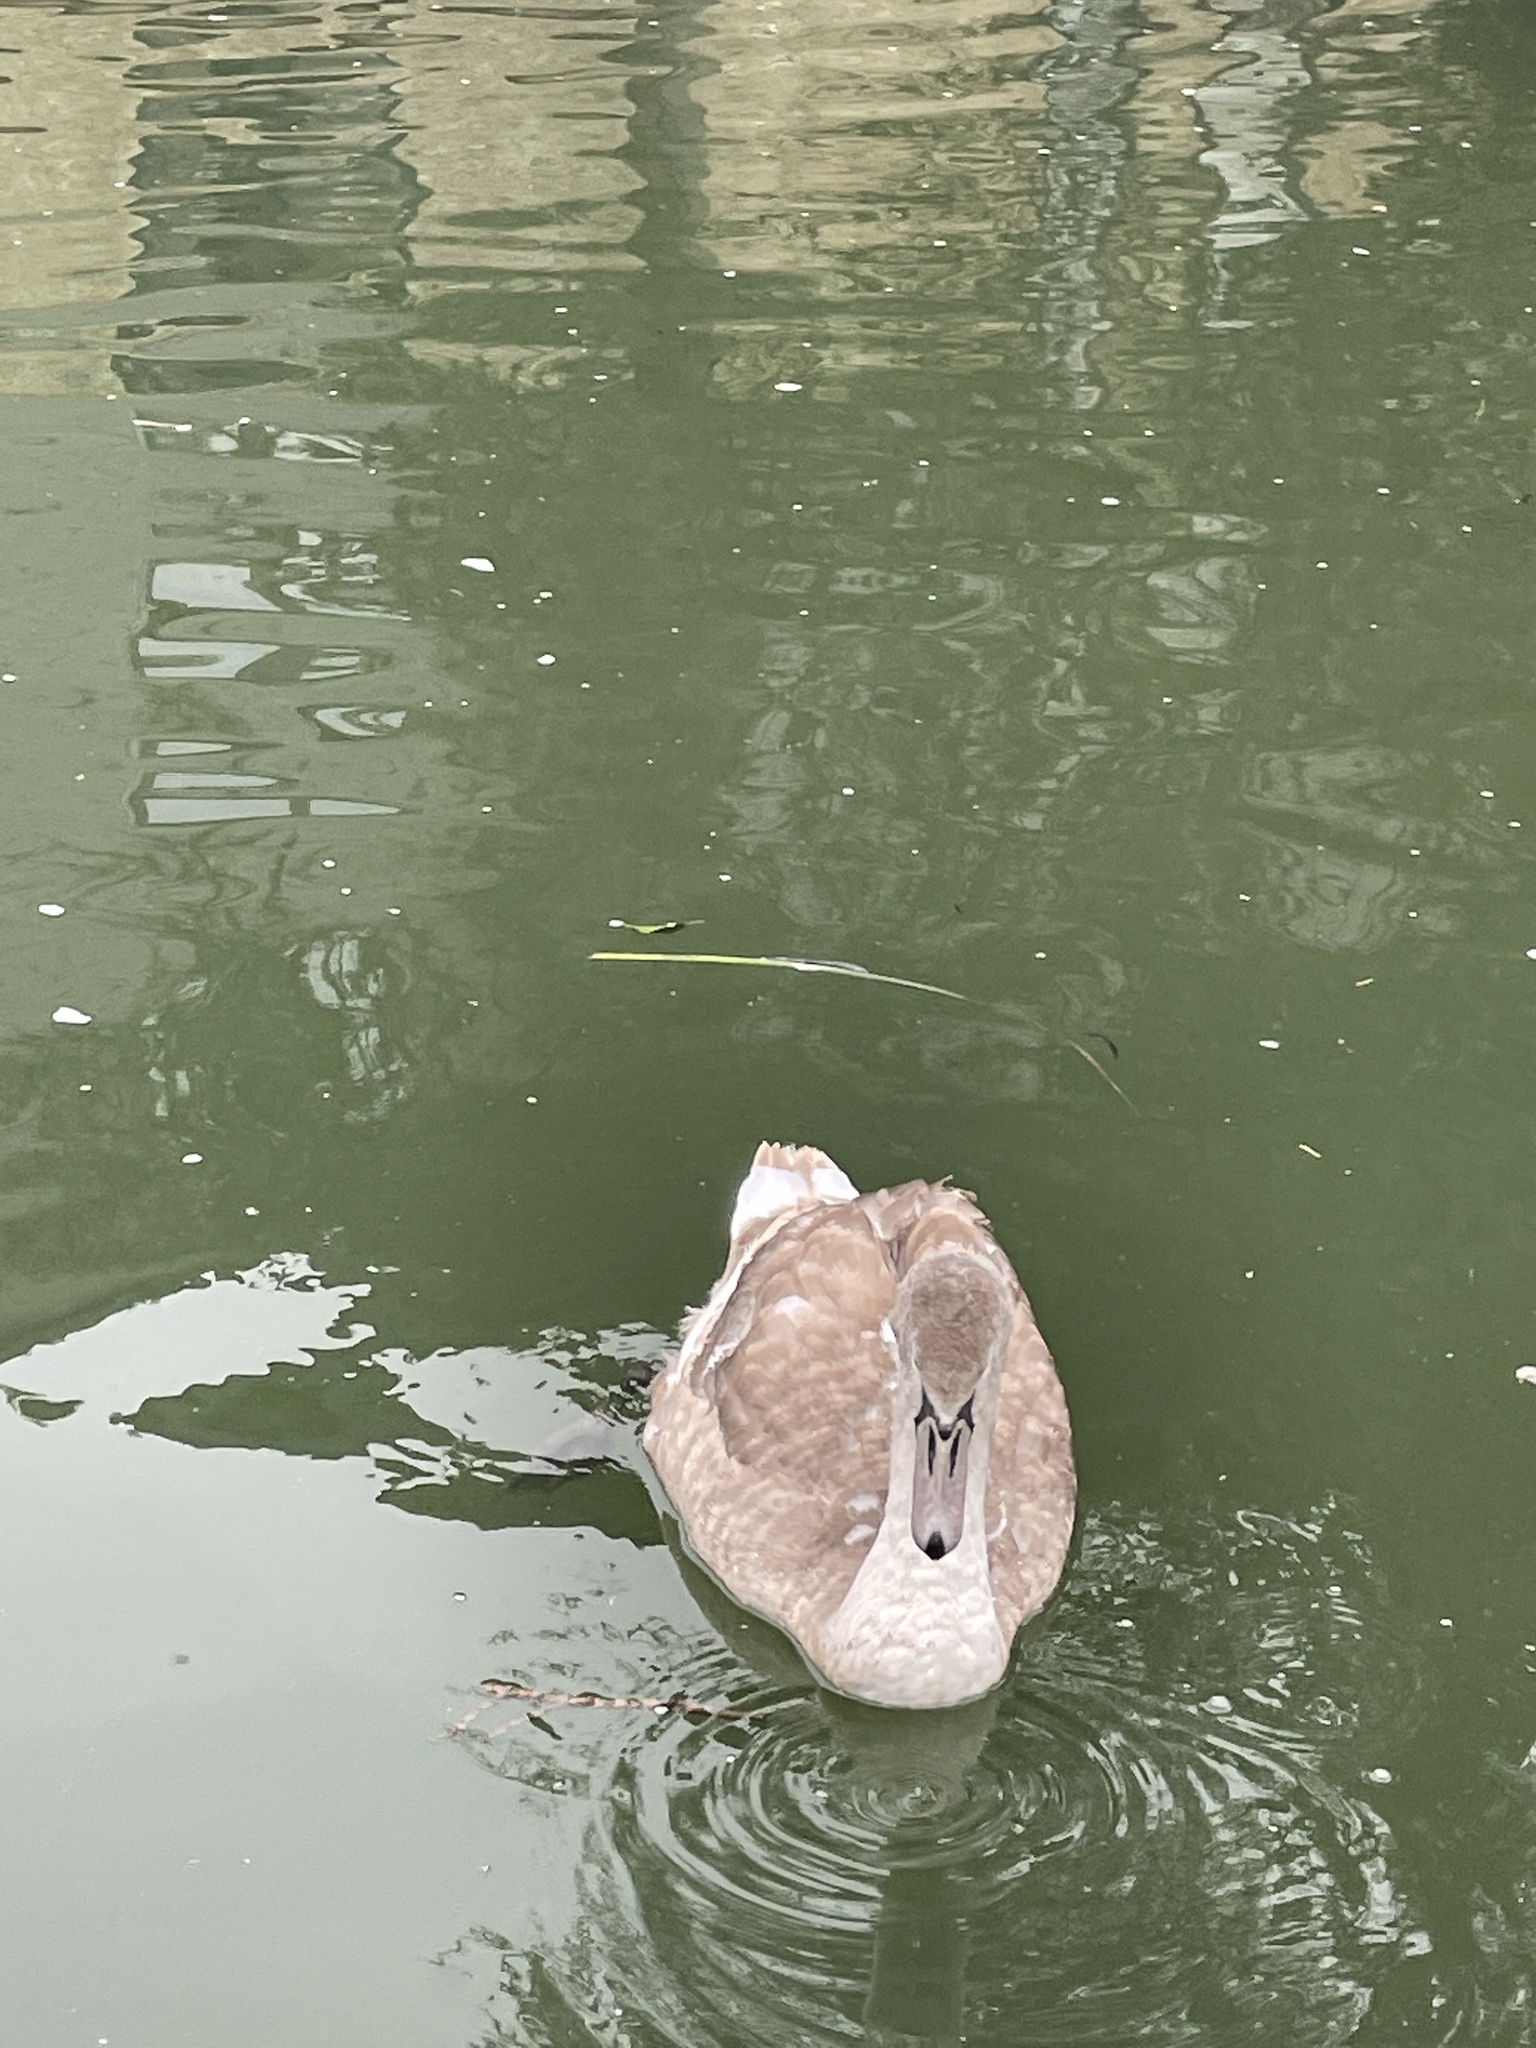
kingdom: Animalia
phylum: Chordata
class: Aves
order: Anseriformes
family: Anatidae
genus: Cygnus
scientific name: Cygnus olor
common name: Mute swan
